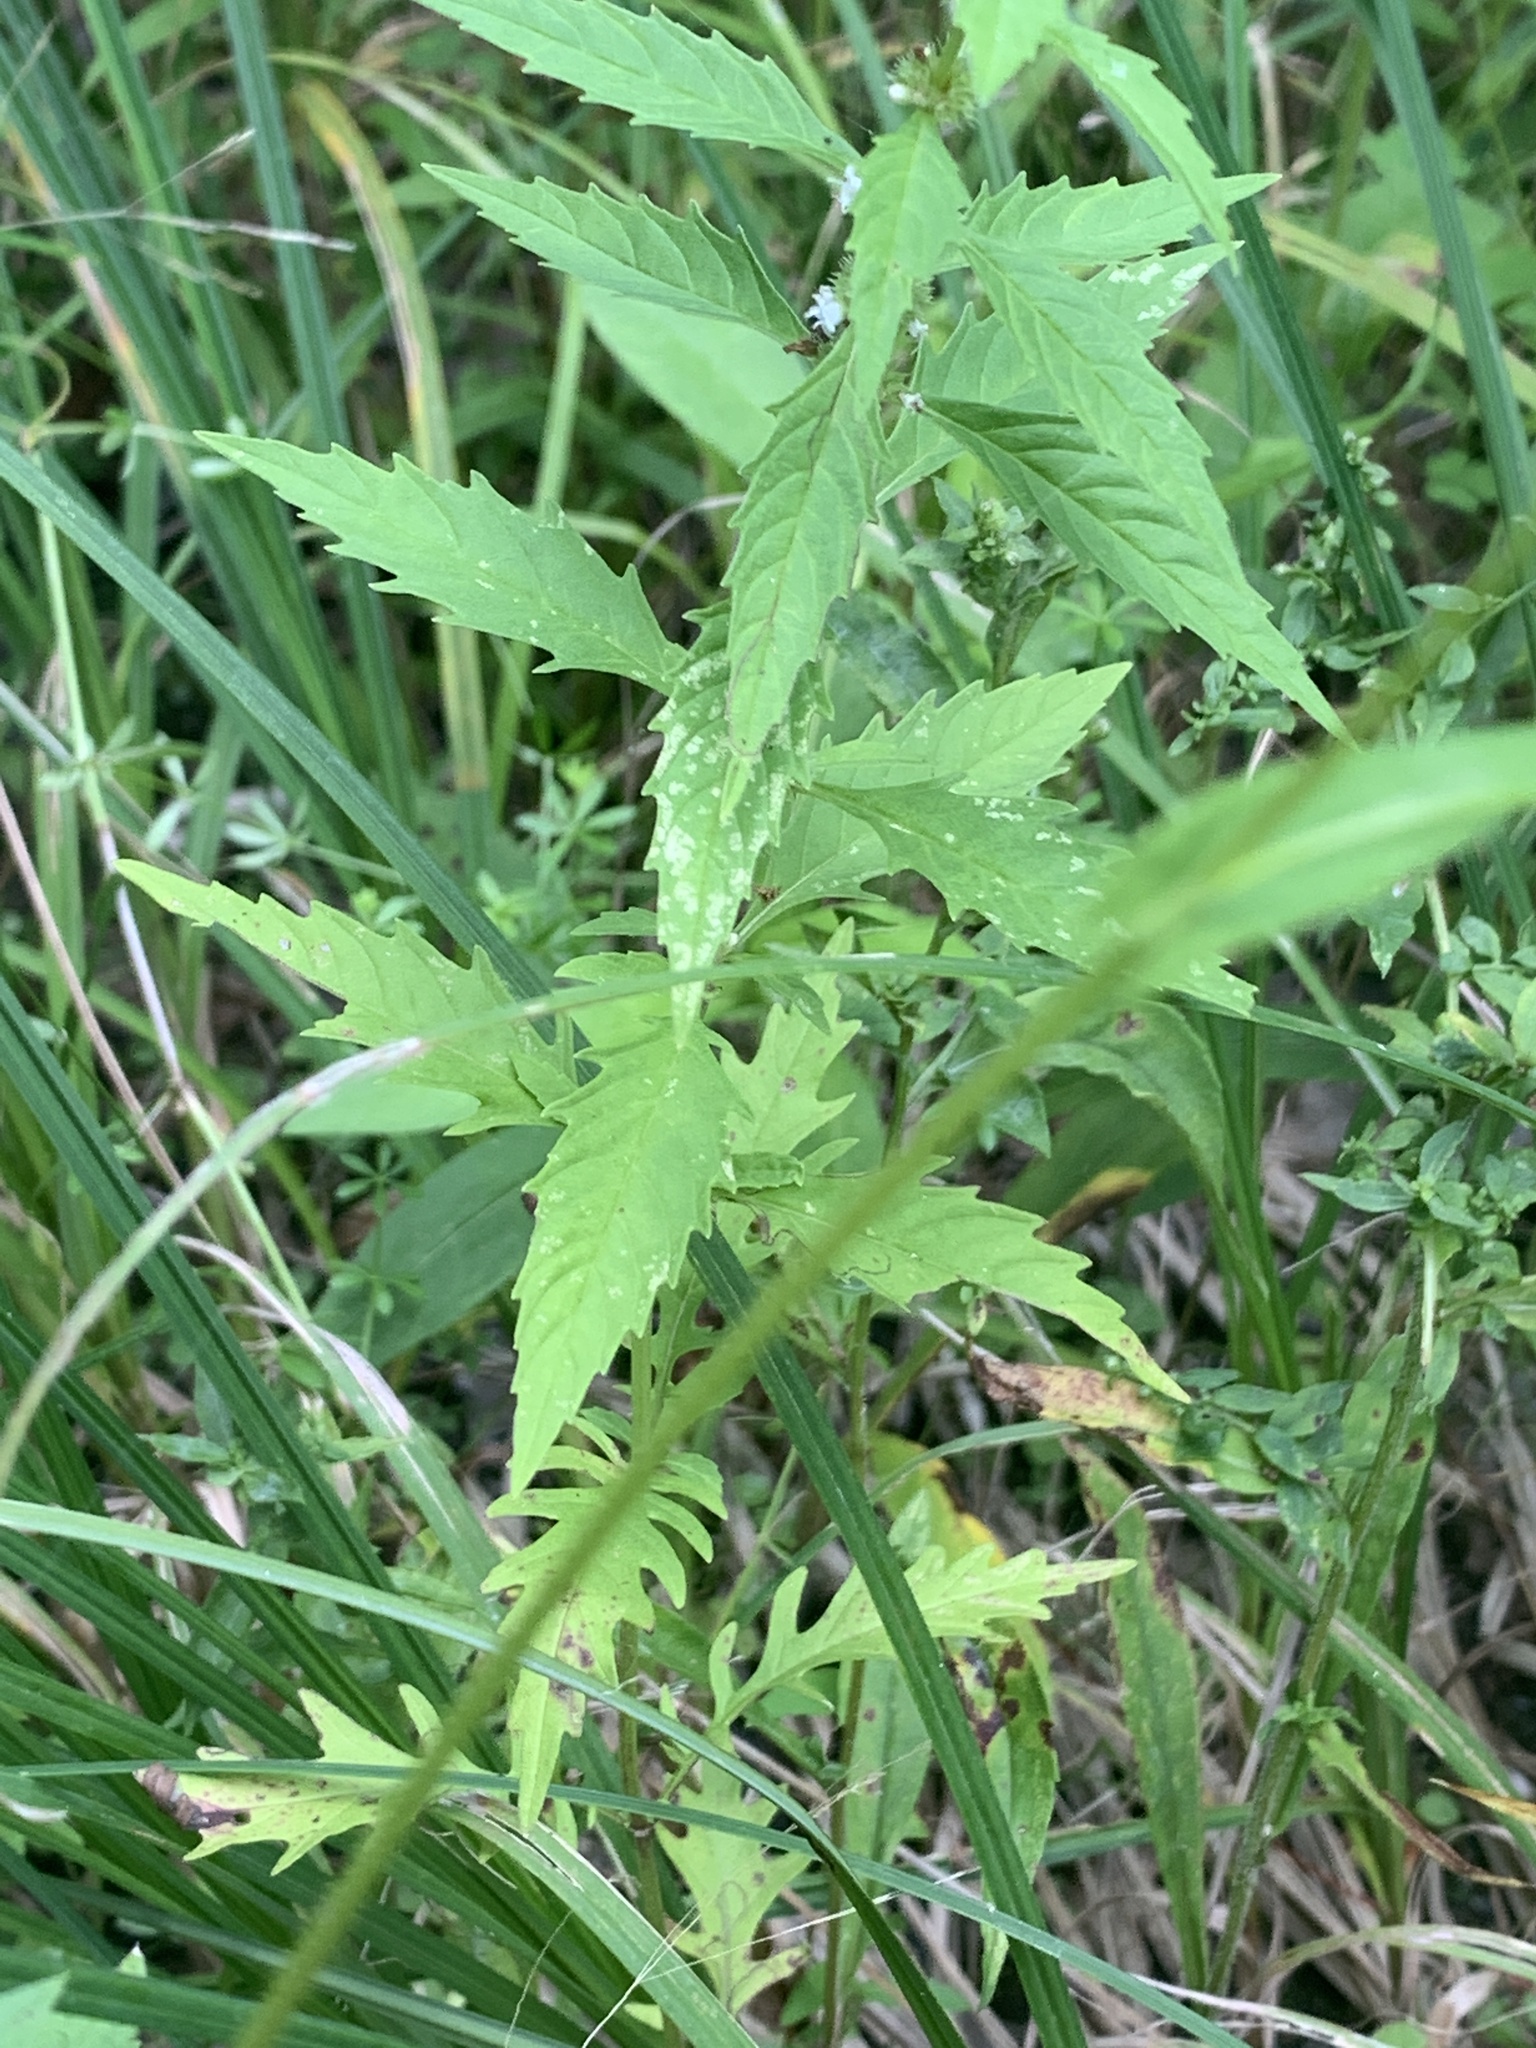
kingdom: Plantae
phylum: Tracheophyta
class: Magnoliopsida
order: Lamiales
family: Lamiaceae
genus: Lycopus
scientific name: Lycopus americanus
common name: American bugleweed
